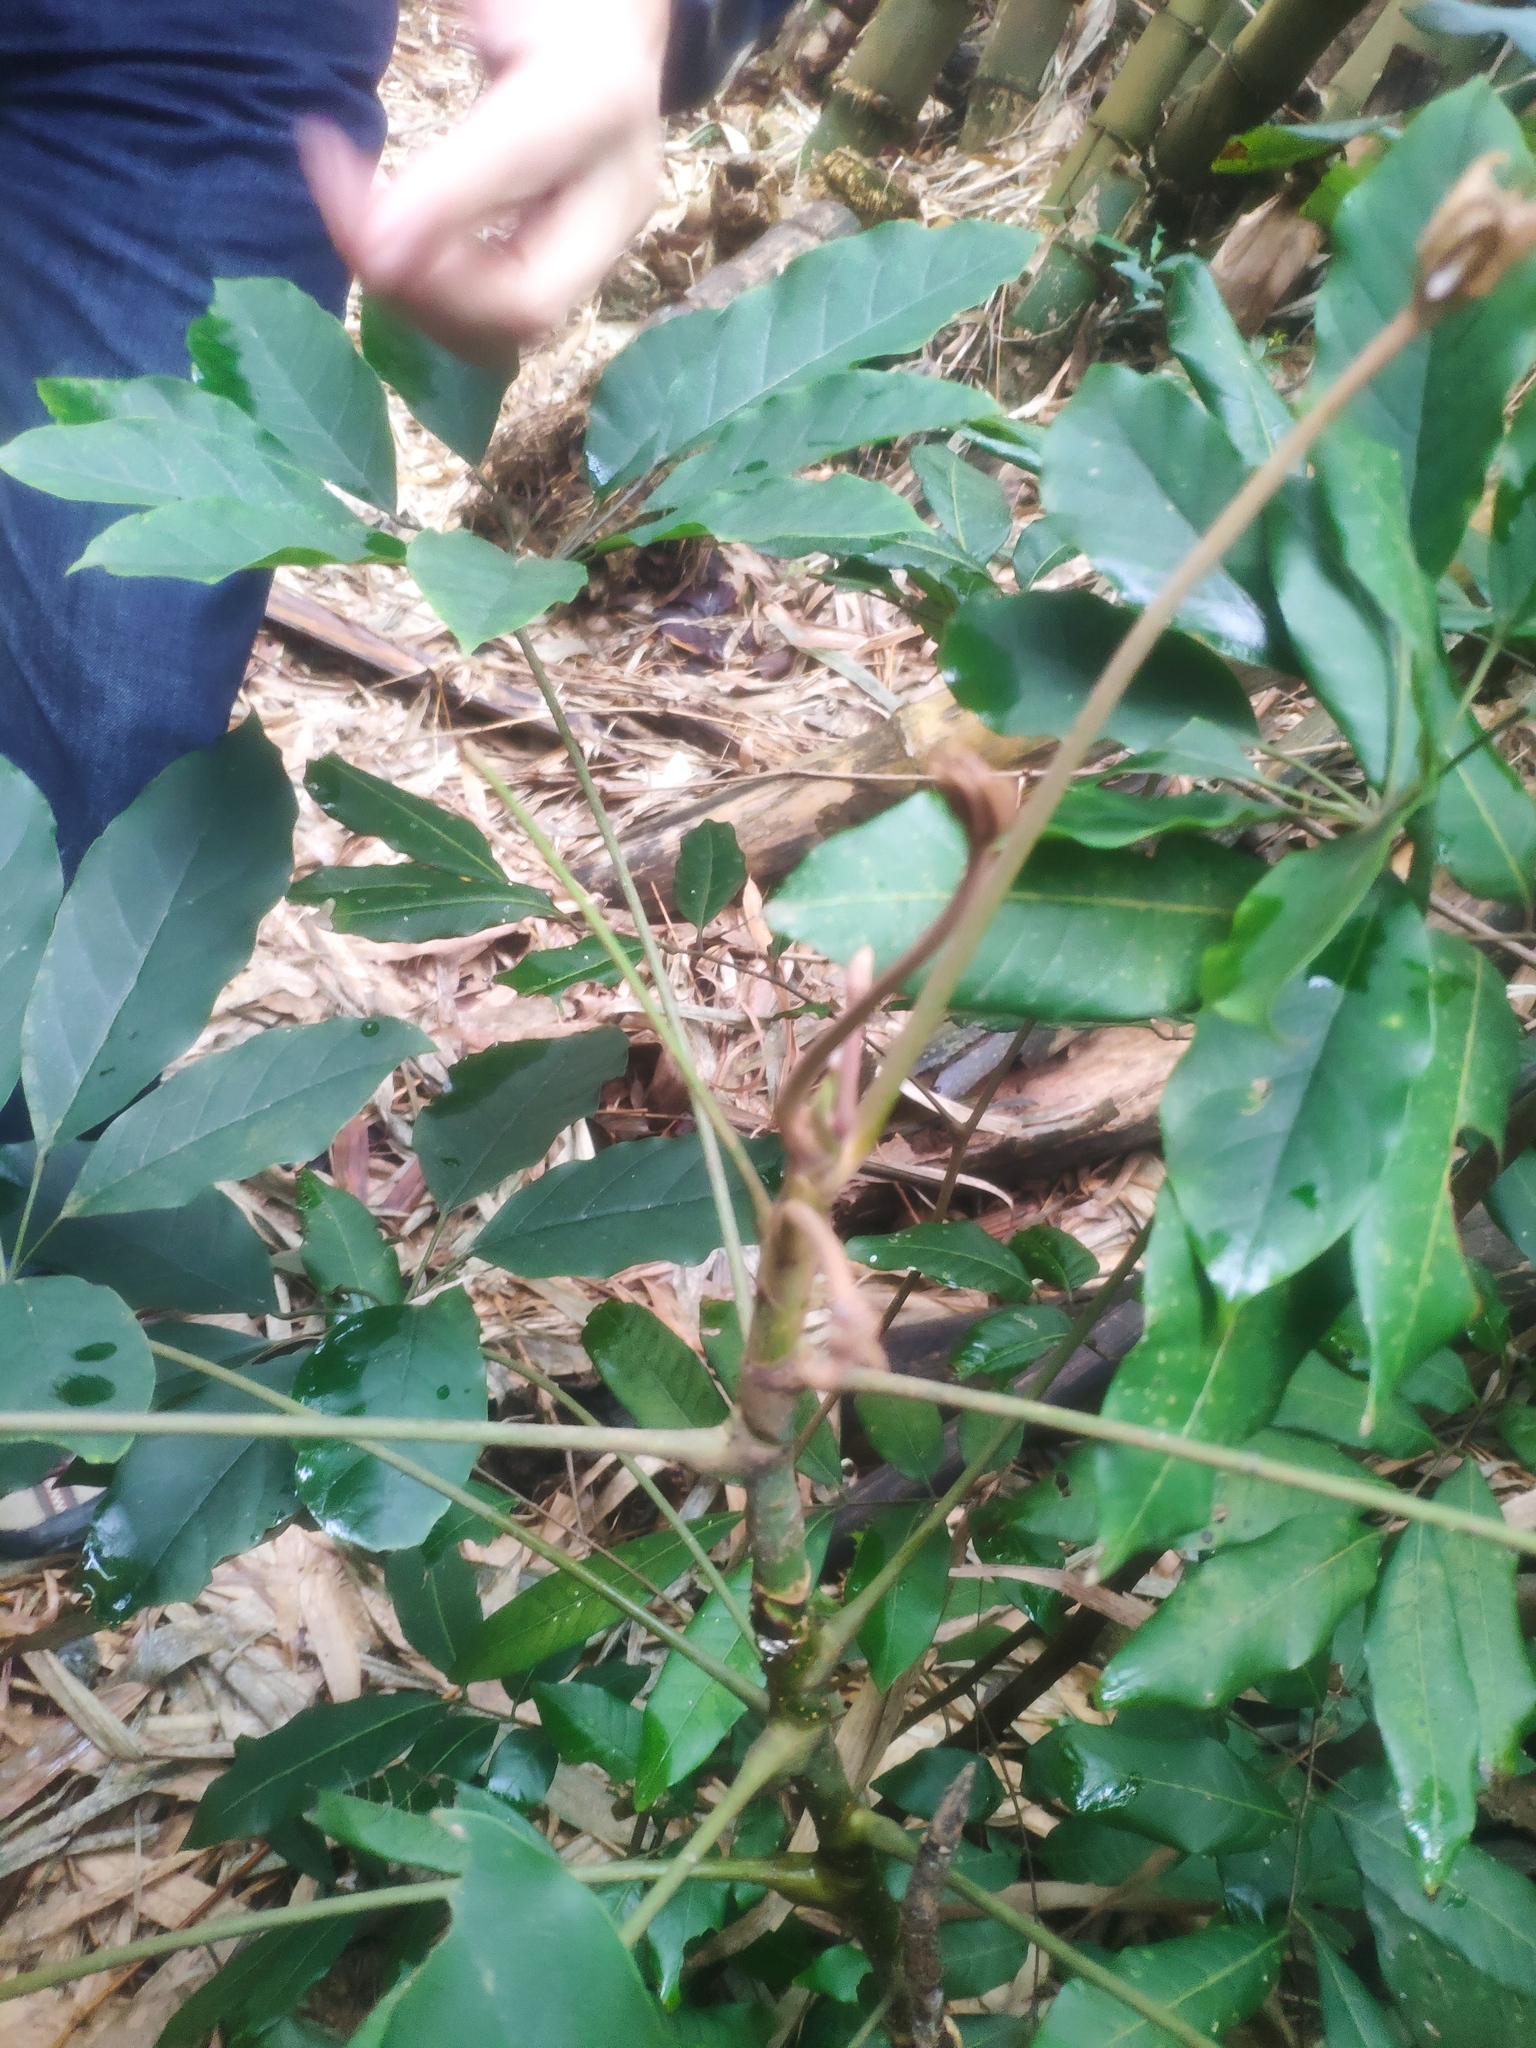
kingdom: Plantae
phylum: Tracheophyta
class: Magnoliopsida
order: Apiales
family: Araliaceae
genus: Heptapleurum
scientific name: Heptapleurum heptaphyllum
